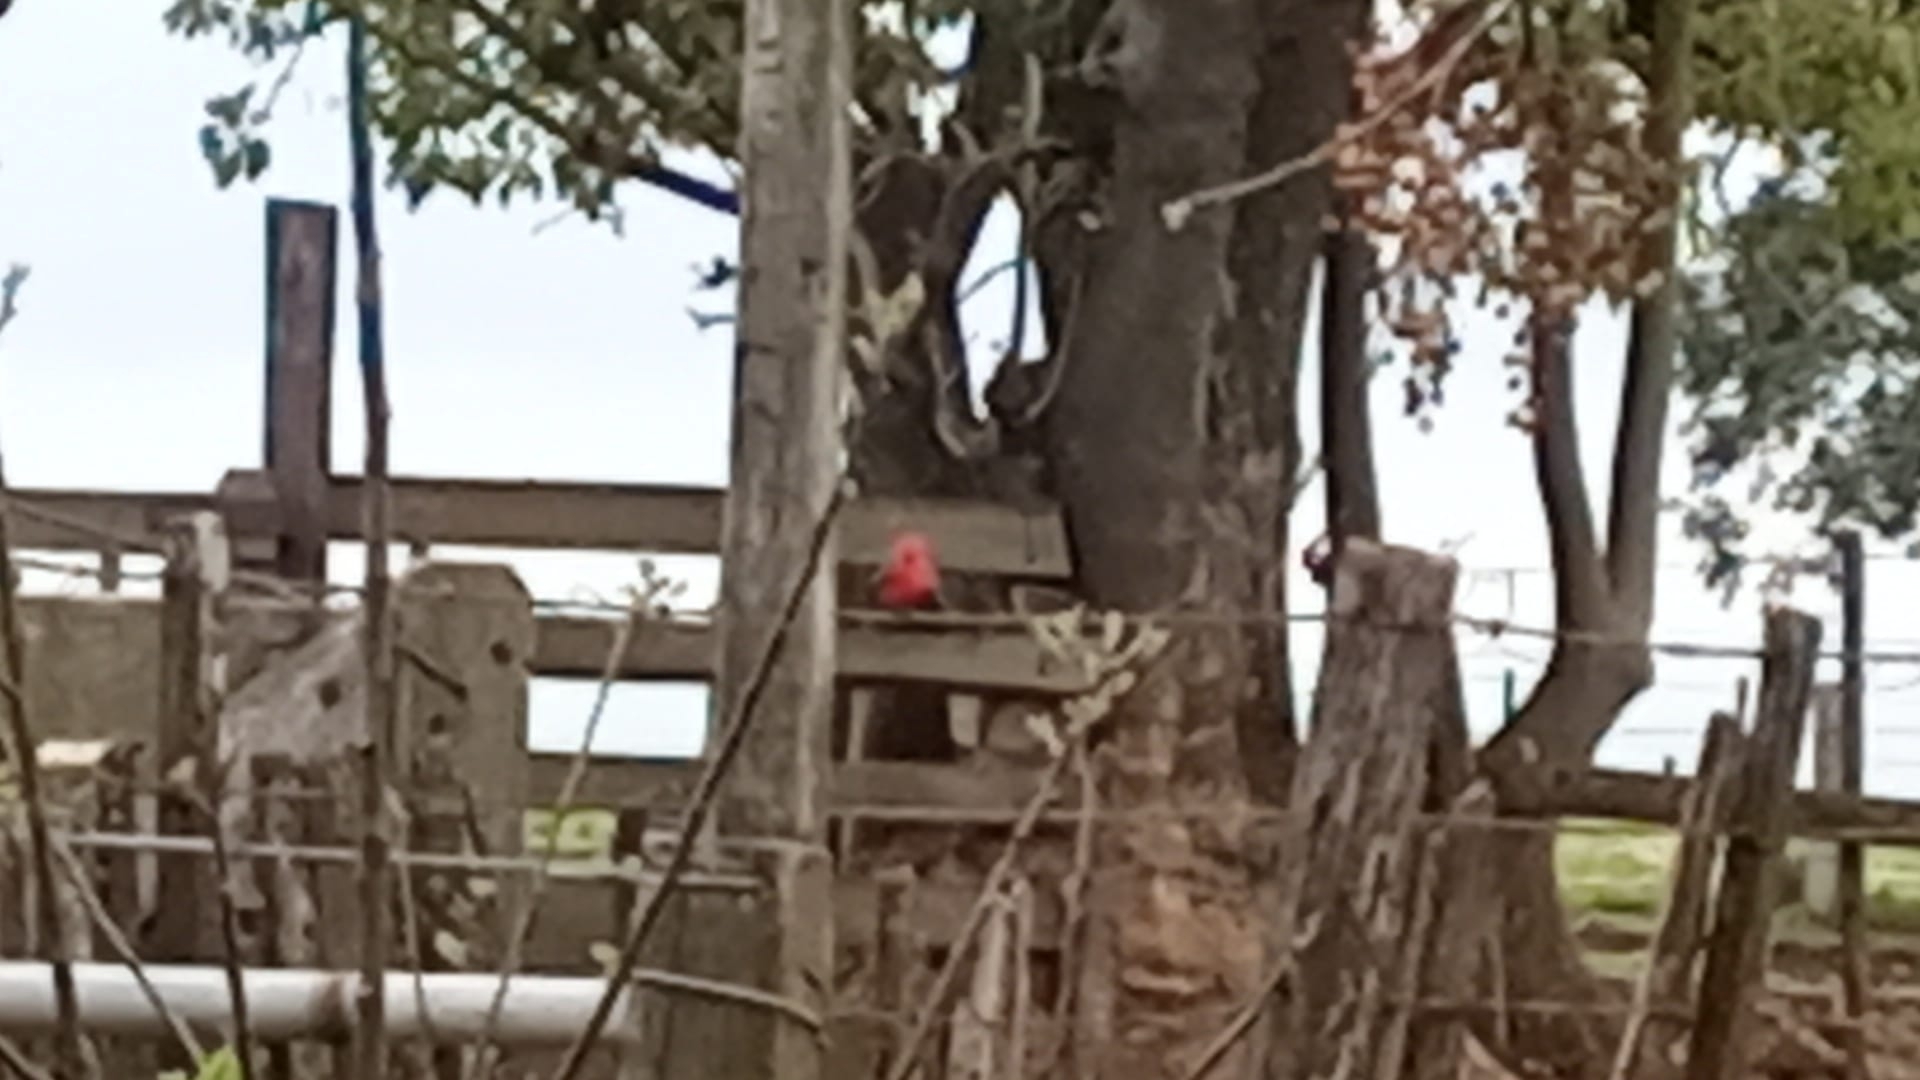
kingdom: Animalia
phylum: Chordata
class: Aves
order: Passeriformes
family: Tyrannidae
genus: Pyrocephalus
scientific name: Pyrocephalus rubinus
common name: Vermilion flycatcher
